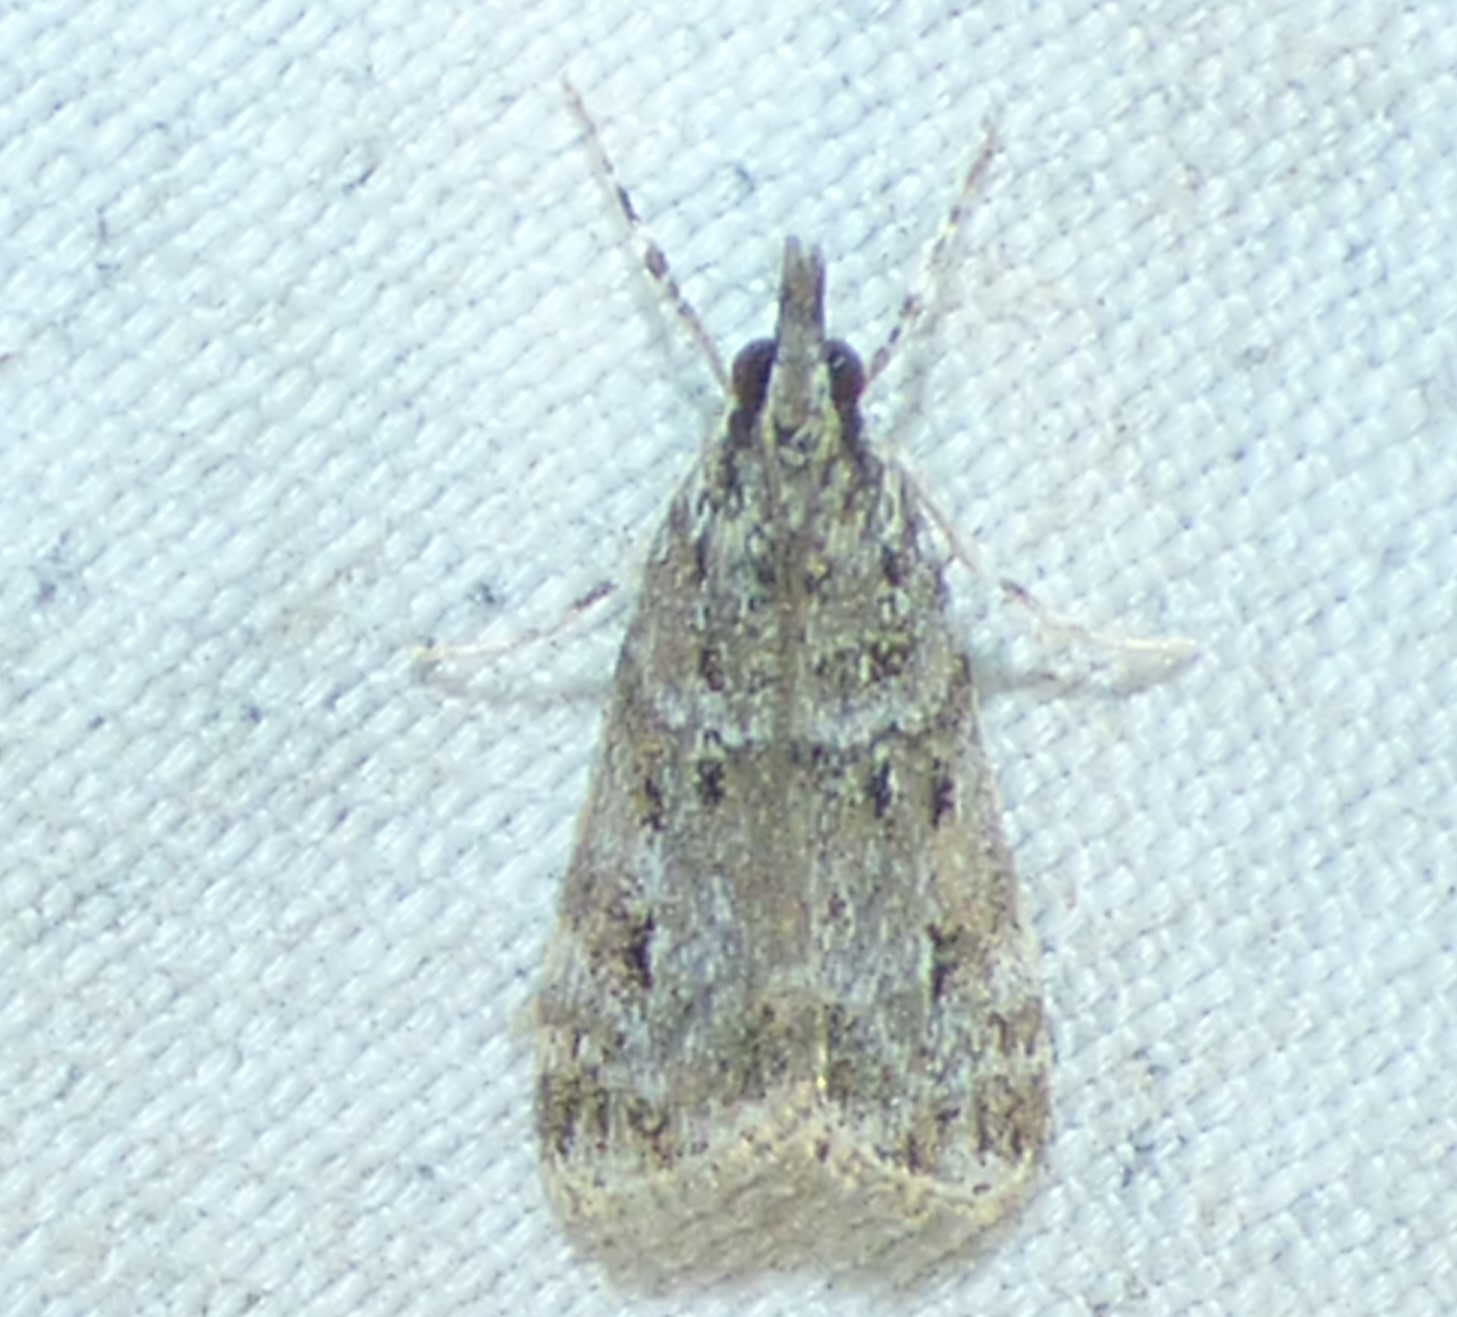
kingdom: Animalia
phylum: Arthropoda
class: Insecta
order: Lepidoptera
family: Crambidae
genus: Eudonia
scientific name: Eudonia heterosalis
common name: Mcdunnough's eudonia
